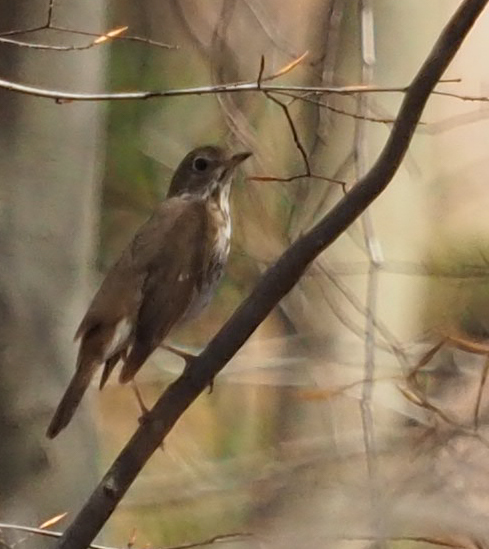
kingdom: Animalia
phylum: Chordata
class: Aves
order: Passeriformes
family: Turdidae
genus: Catharus
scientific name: Catharus guttatus
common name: Hermit thrush
